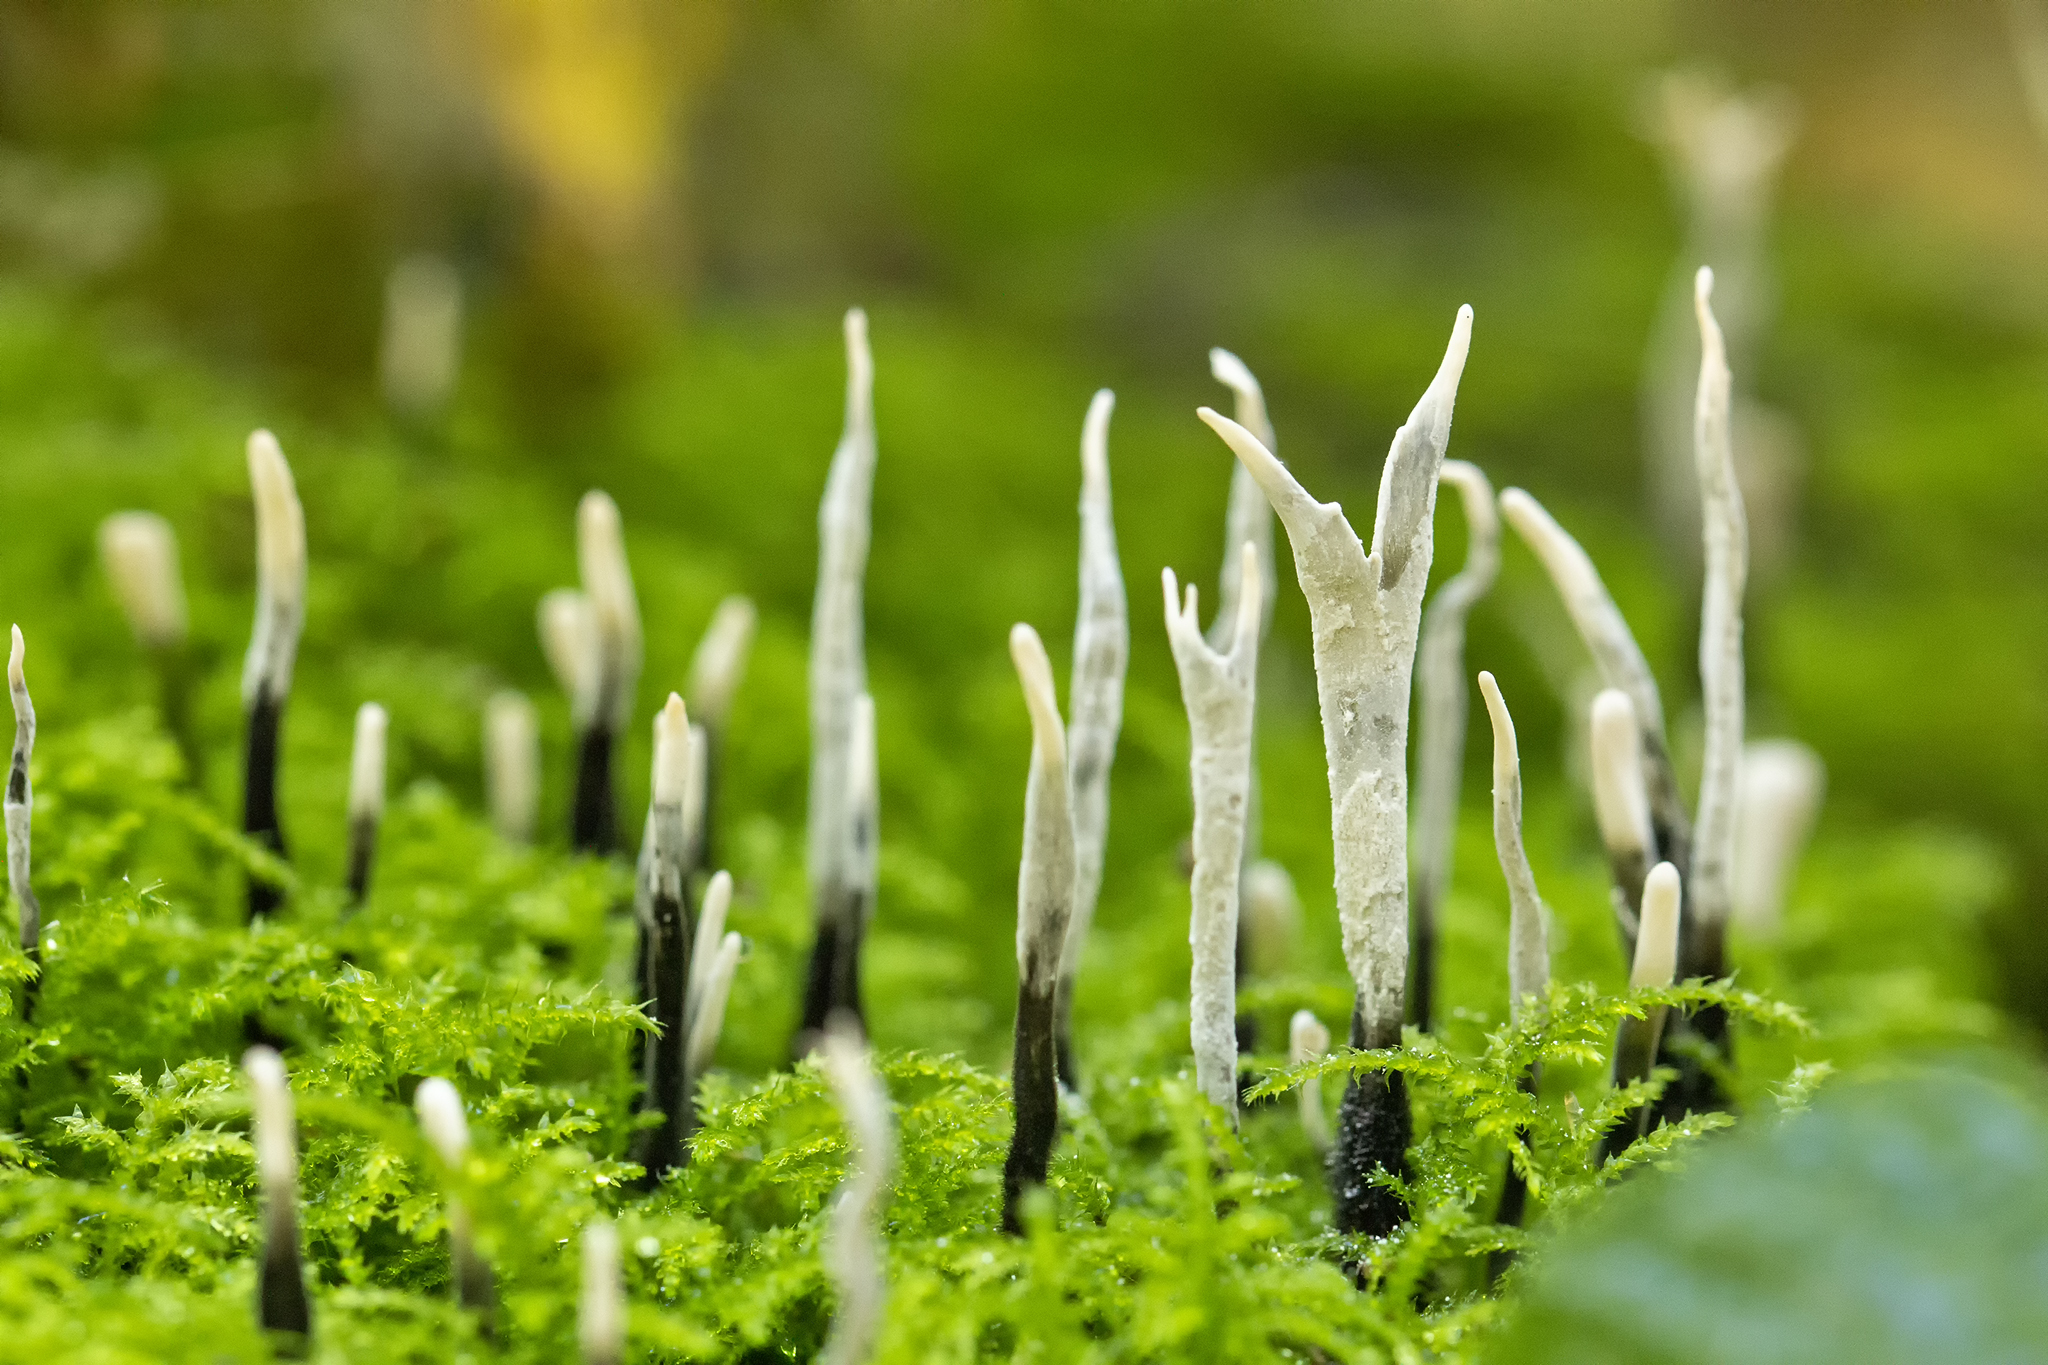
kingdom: Fungi
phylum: Ascomycota
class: Sordariomycetes
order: Xylariales
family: Xylariaceae
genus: Xylaria
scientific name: Xylaria hypoxylon
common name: Candle-snuff fungus
